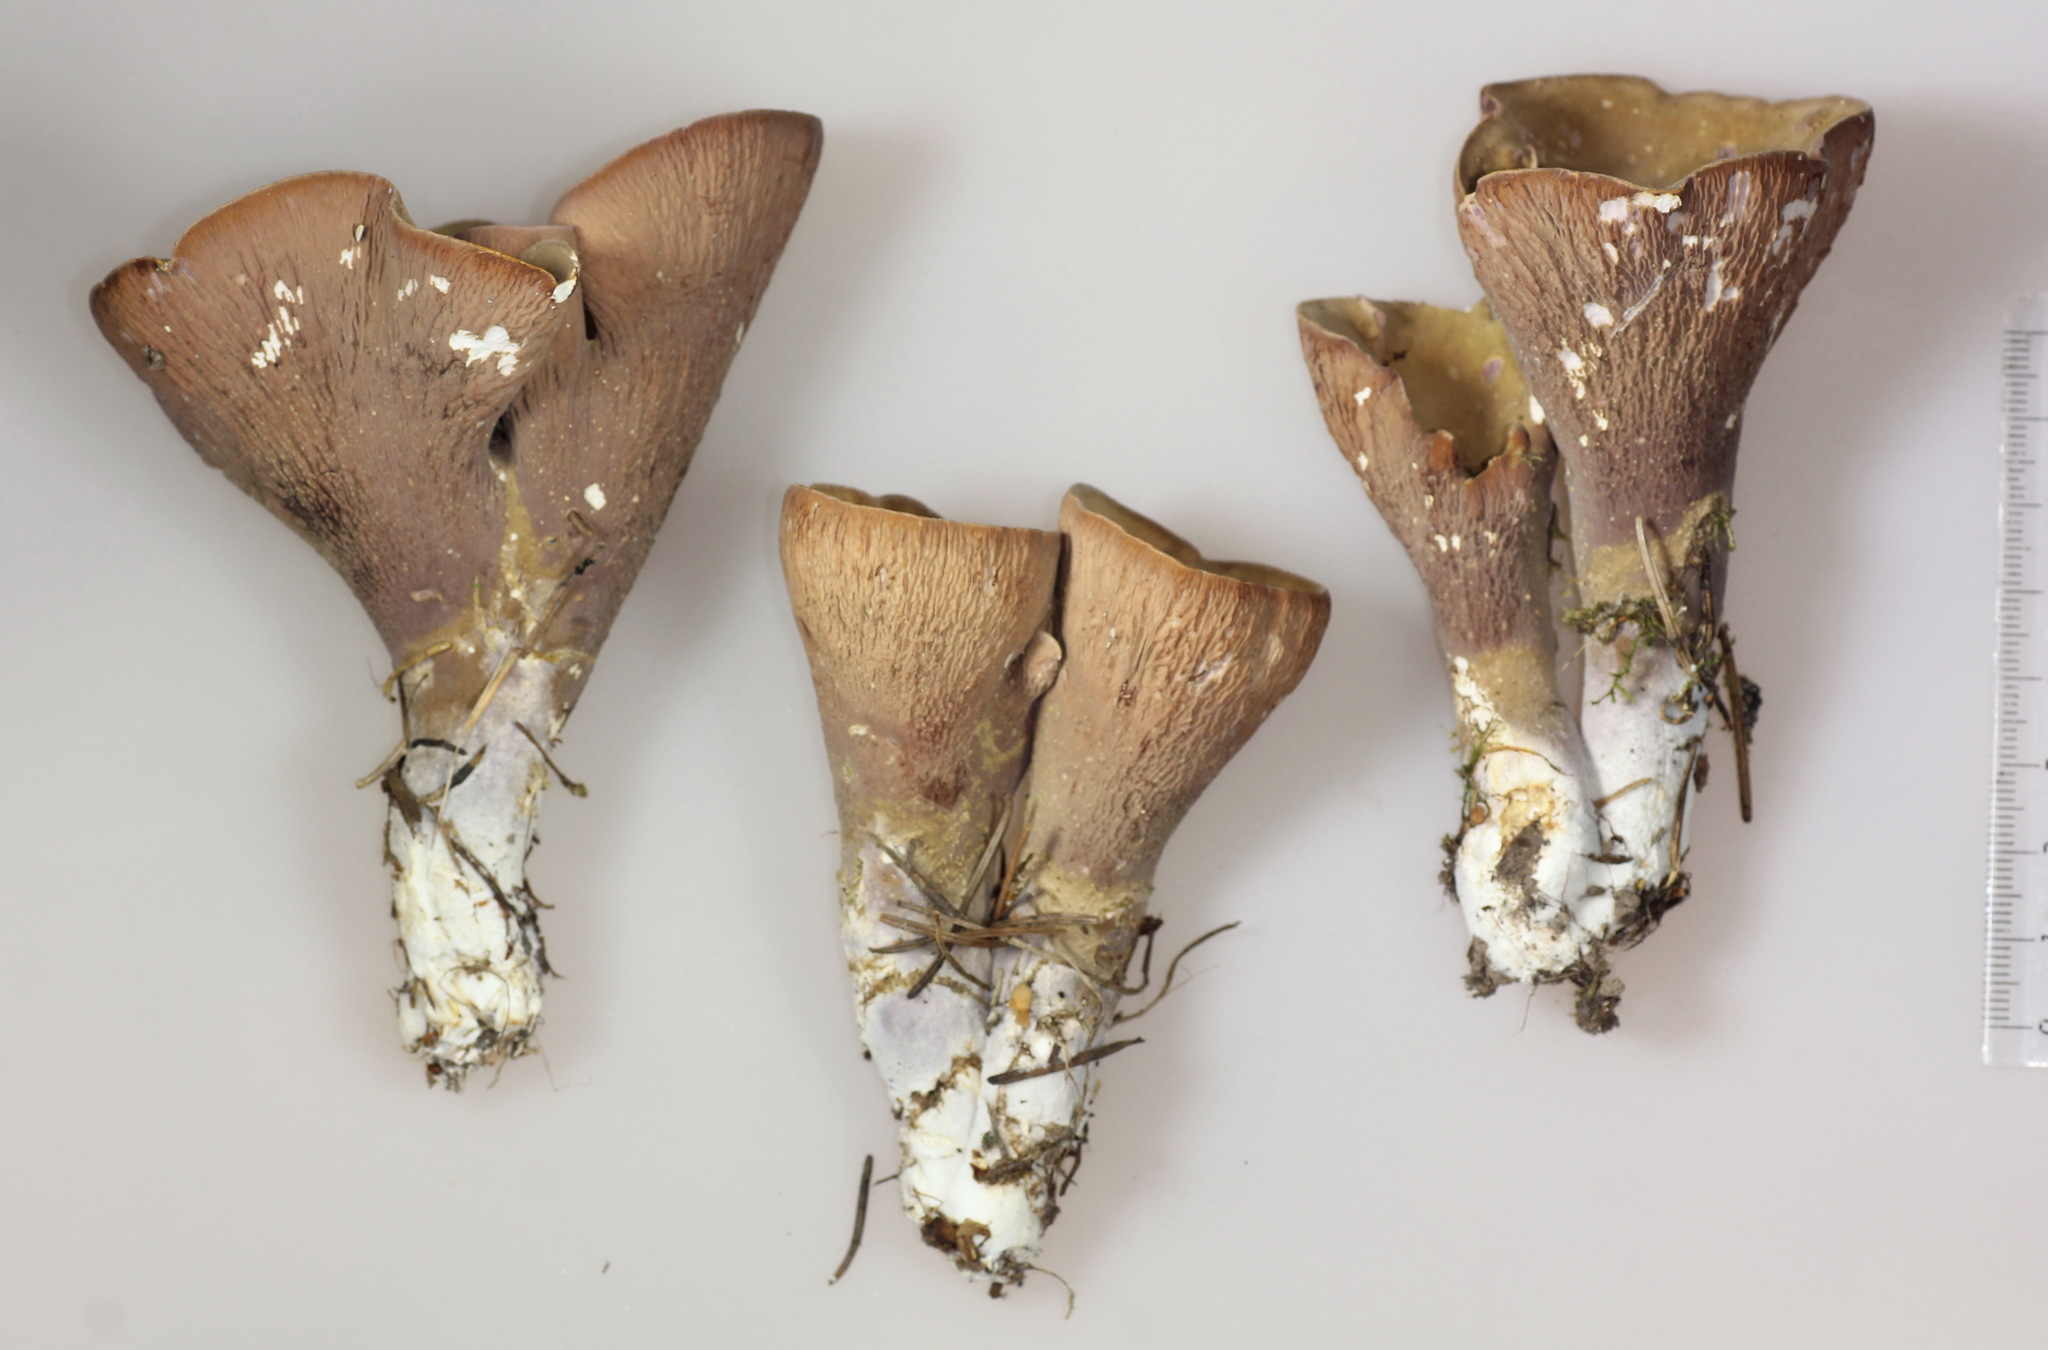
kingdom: Fungi
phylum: Basidiomycota
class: Agaricomycetes
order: Gomphales
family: Gomphaceae
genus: Gomphus
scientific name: Gomphus clavatus
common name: Pig's ear
